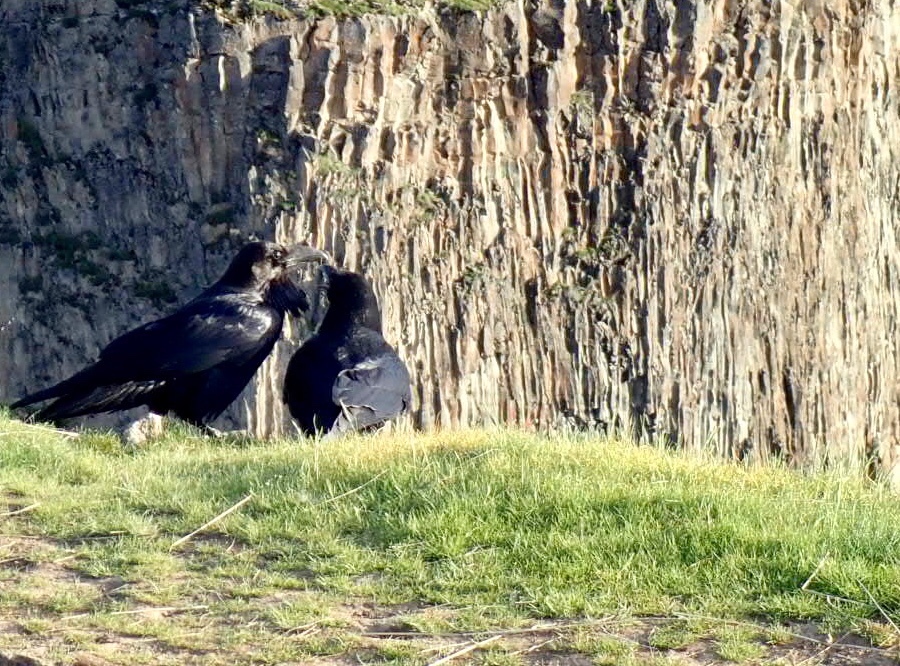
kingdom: Animalia
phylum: Chordata
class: Aves
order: Passeriformes
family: Corvidae
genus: Corvus
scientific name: Corvus corax
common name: Common raven
